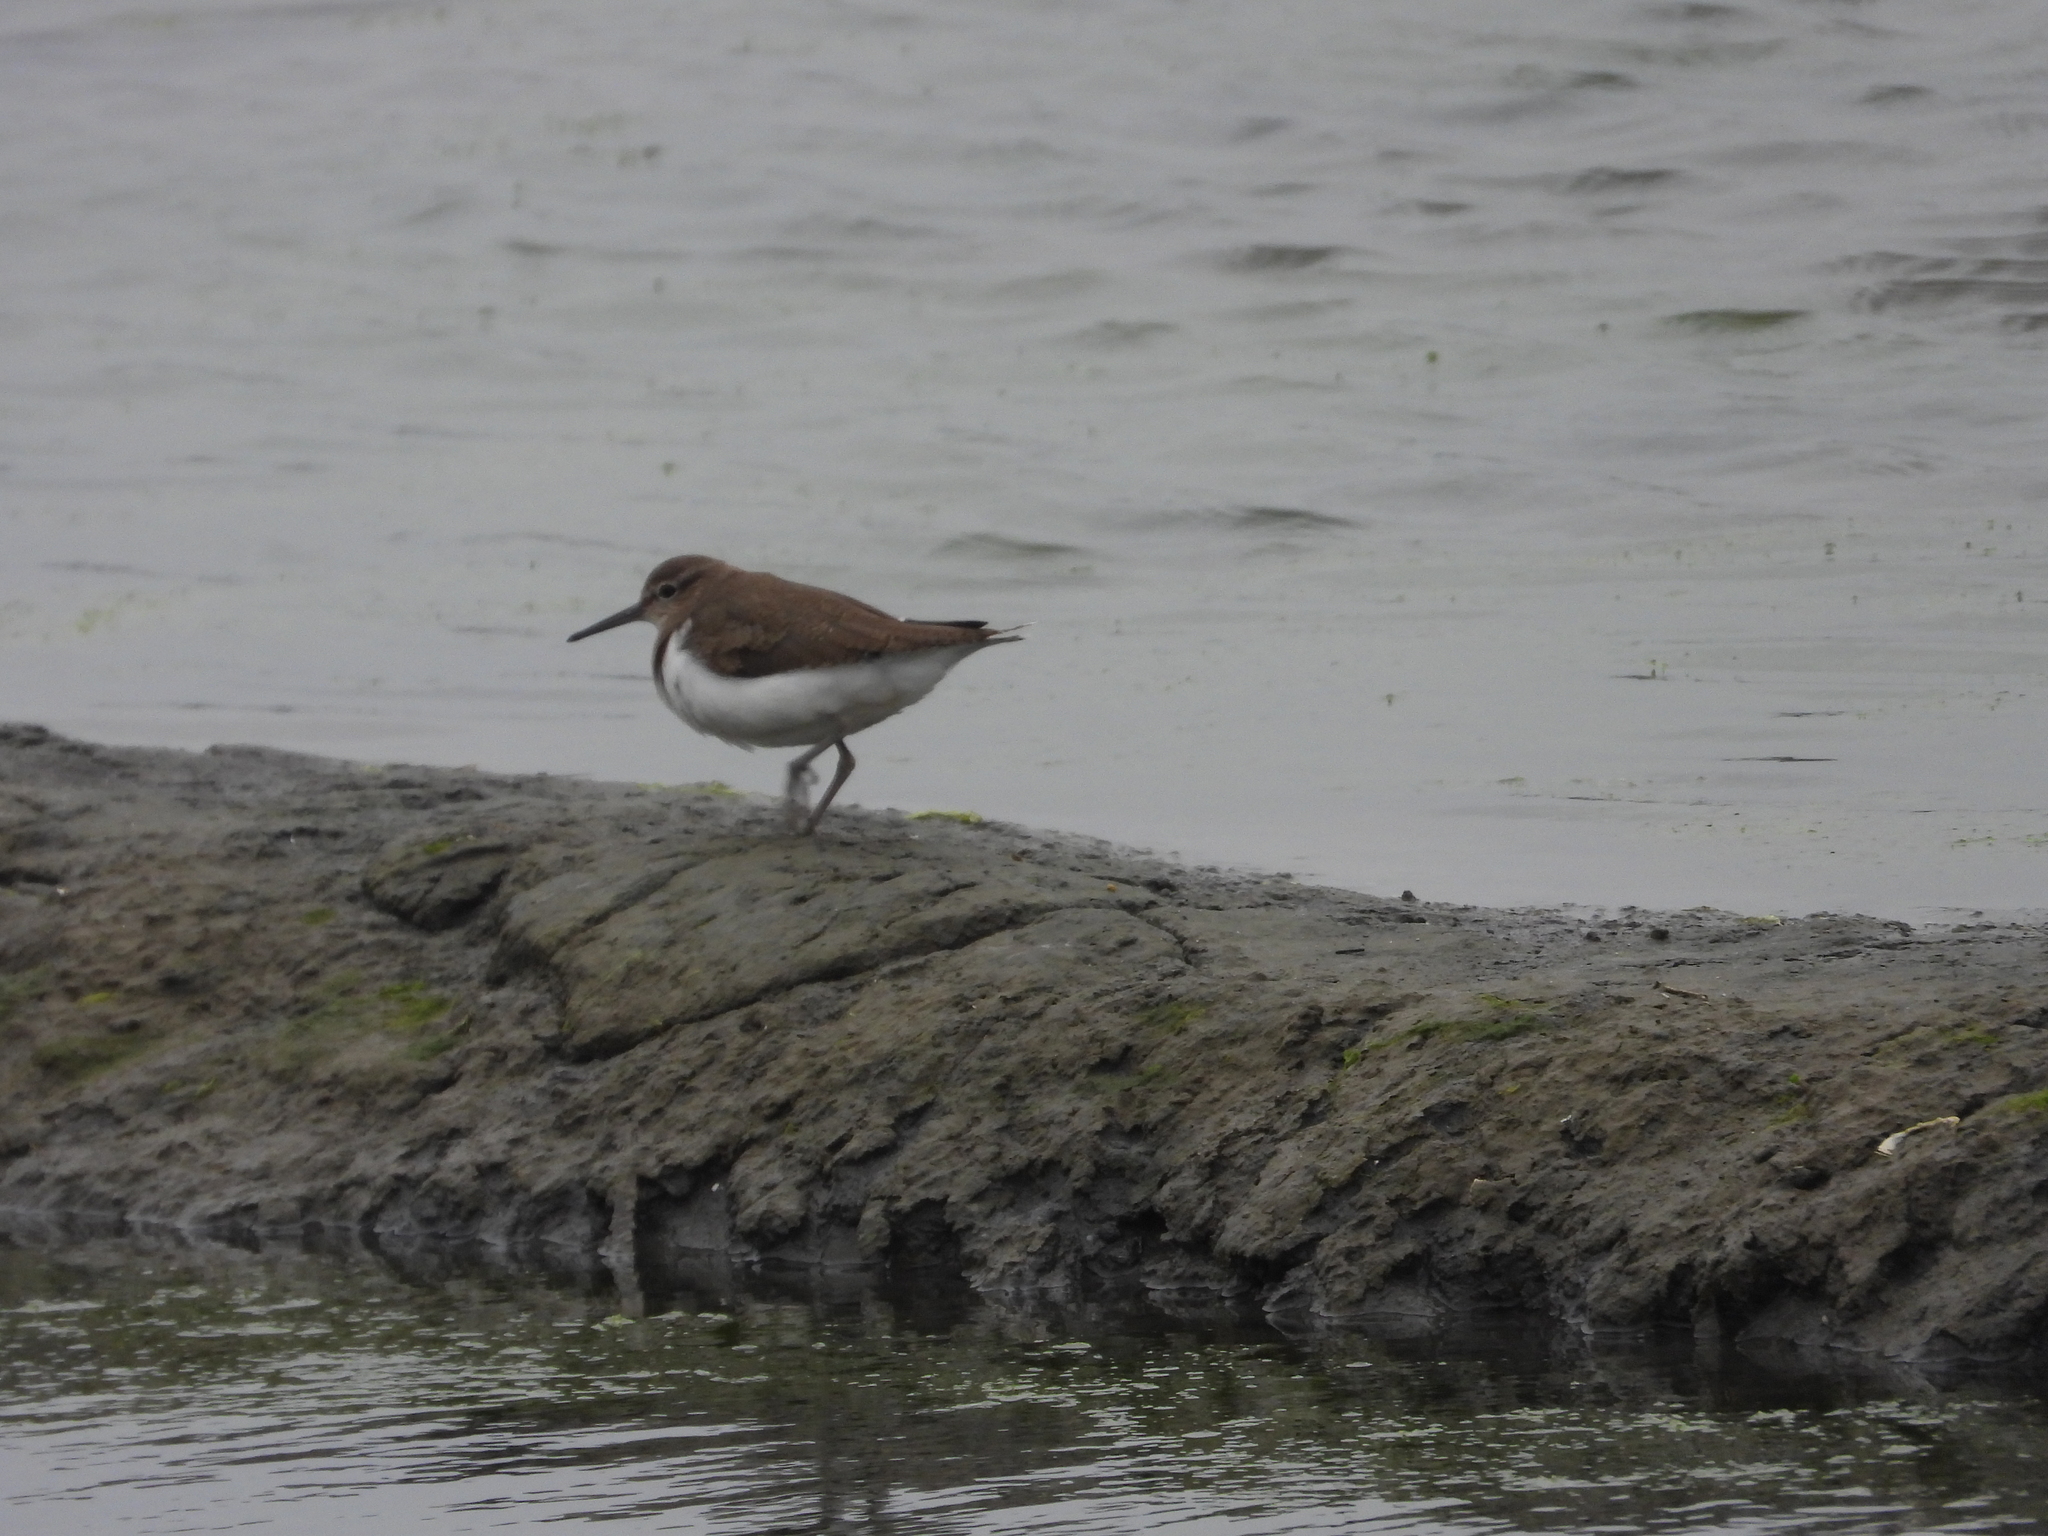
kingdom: Animalia
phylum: Chordata
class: Aves
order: Charadriiformes
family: Scolopacidae
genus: Actitis
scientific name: Actitis hypoleucos
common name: Common sandpiper
